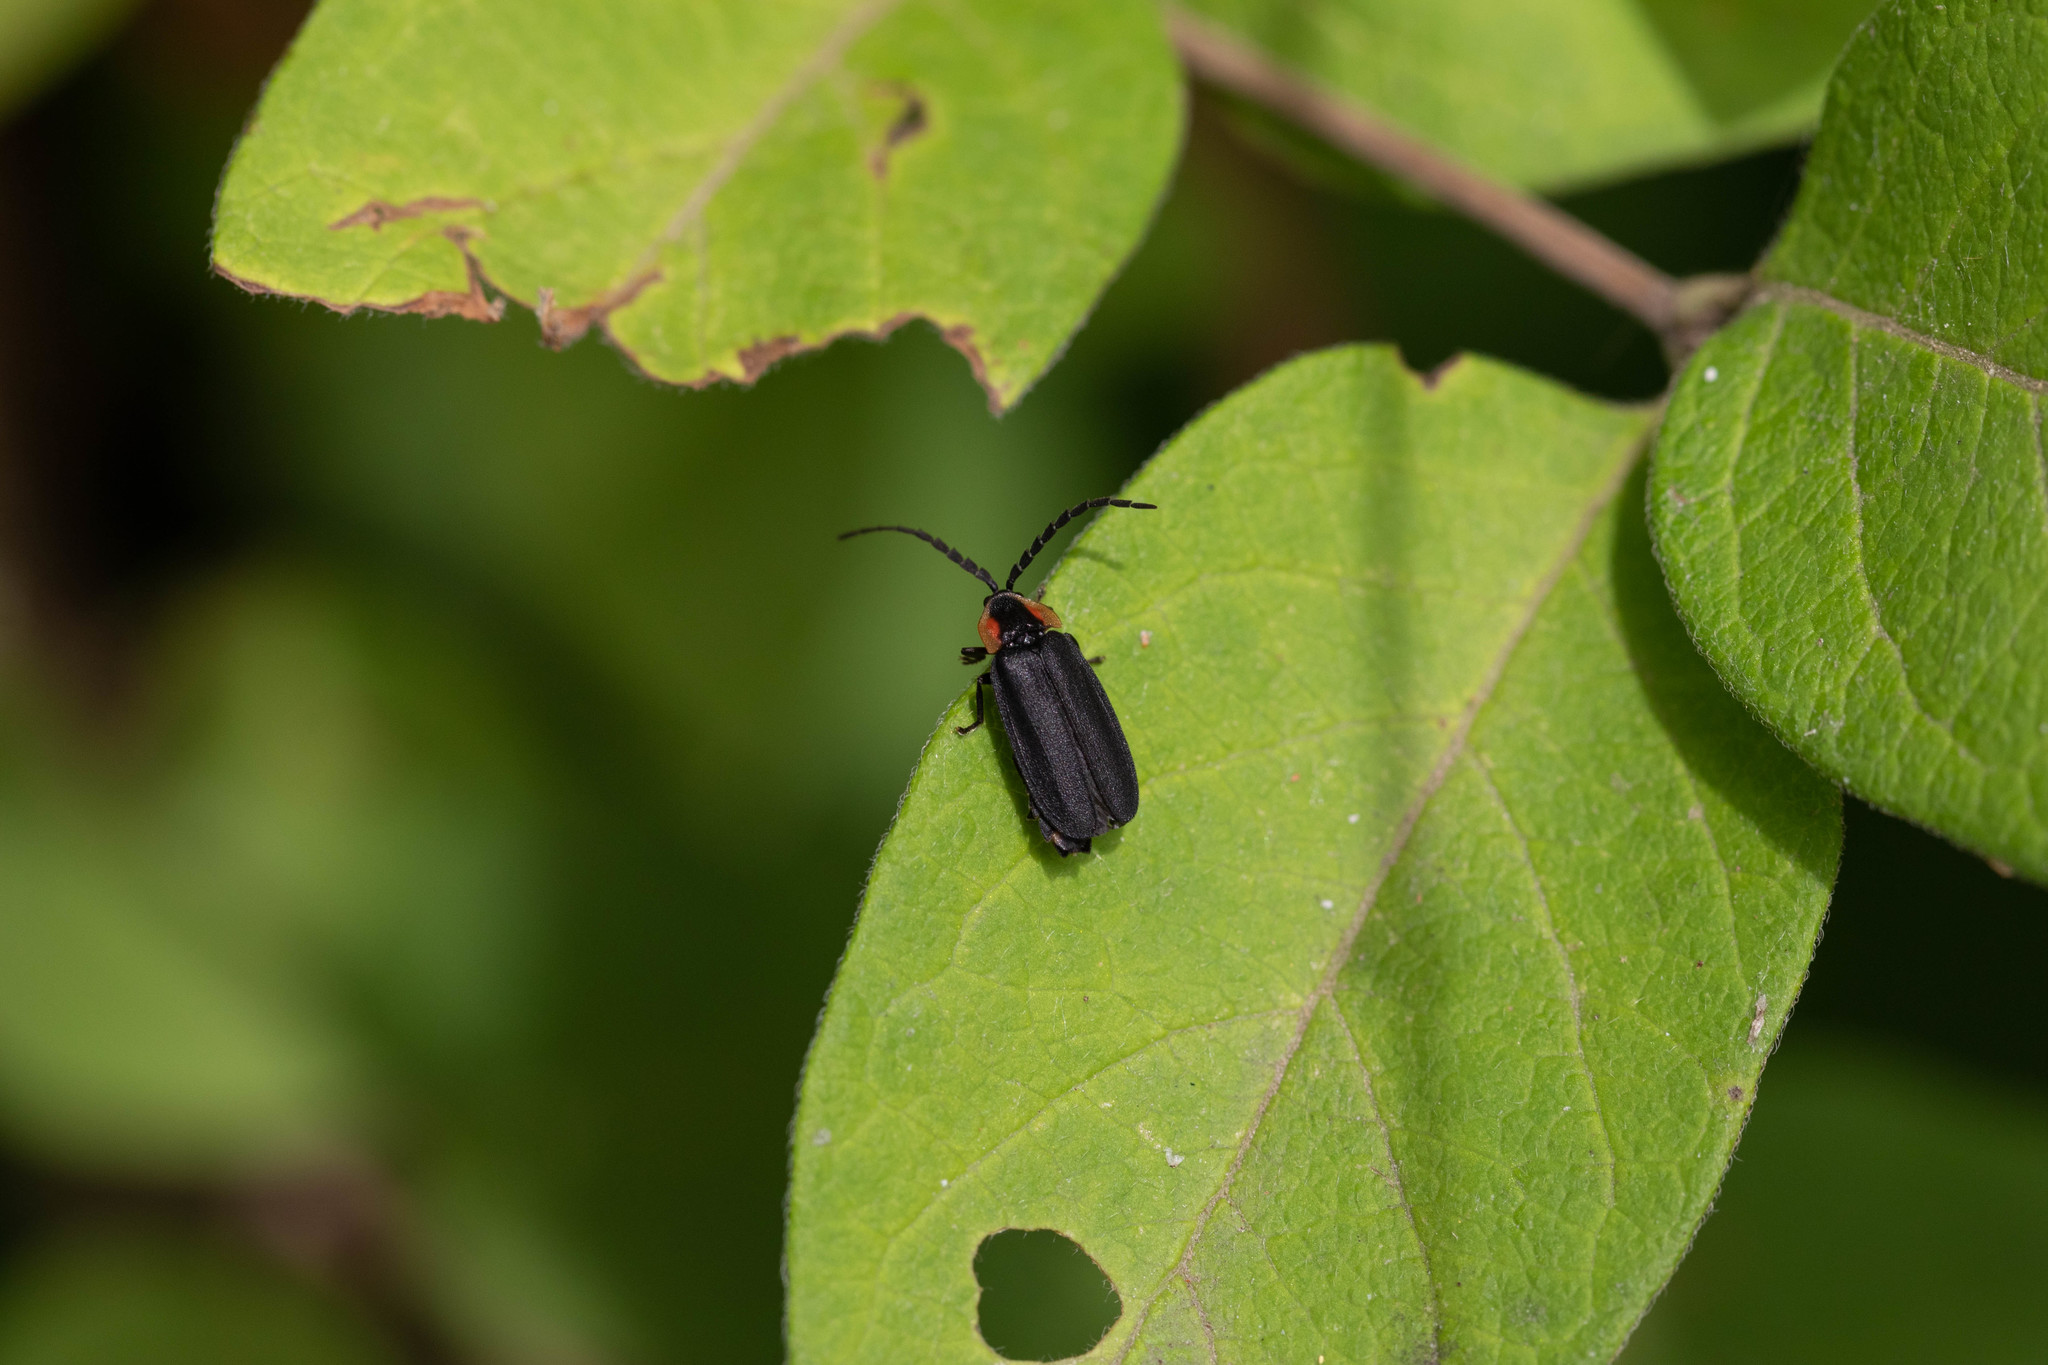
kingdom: Animalia
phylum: Arthropoda
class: Insecta
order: Coleoptera
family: Lampyridae
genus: Lucidota
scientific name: Lucidota atra
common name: Black firefly
